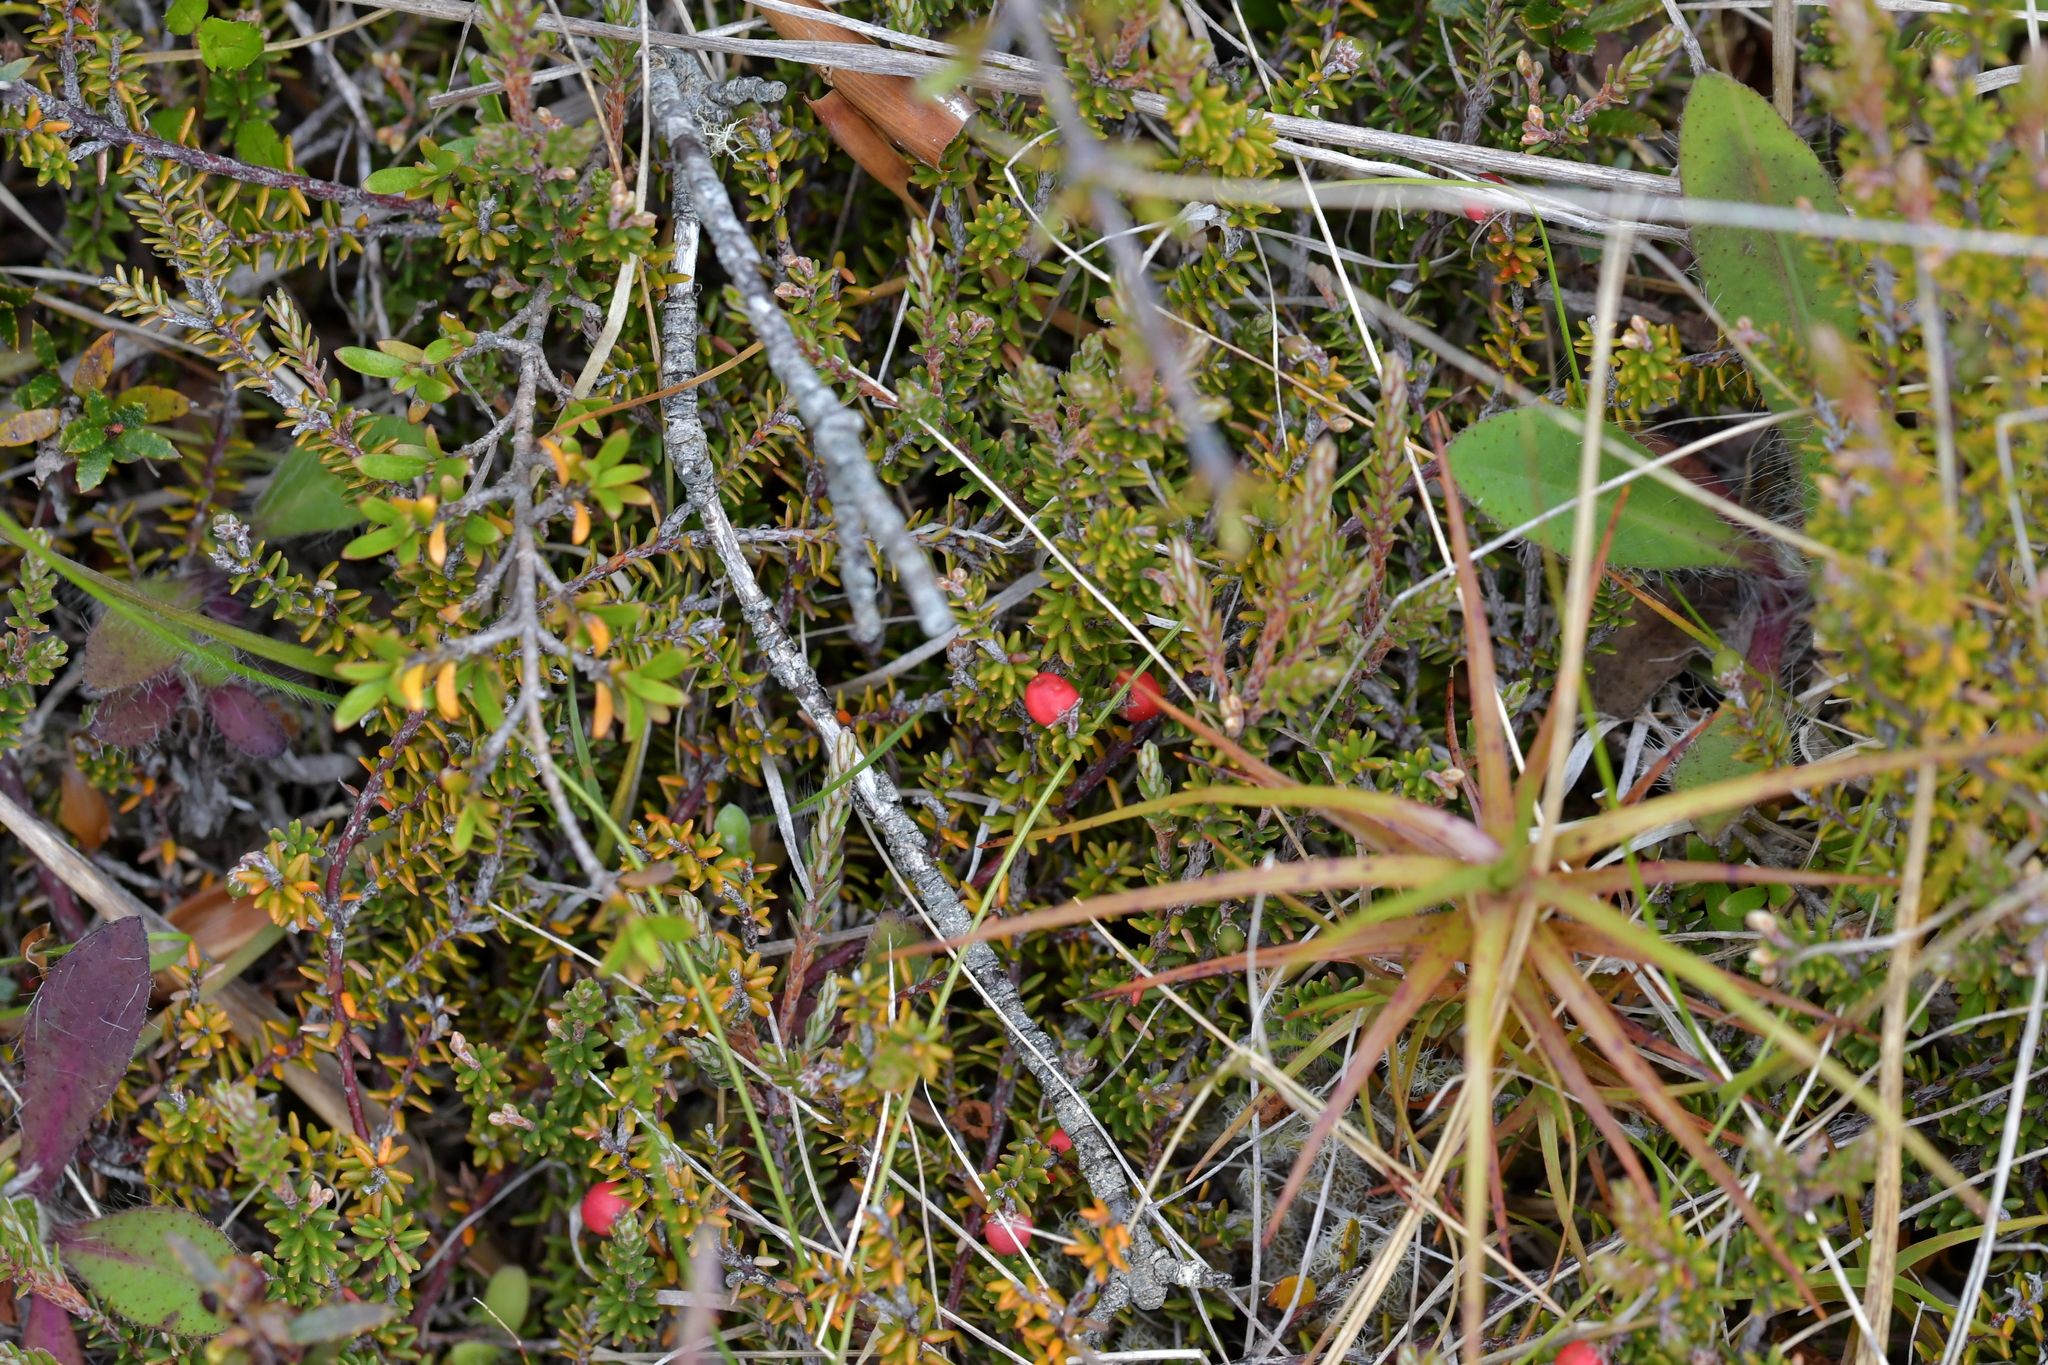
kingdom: Plantae
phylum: Tracheophyta
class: Magnoliopsida
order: Ericales
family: Ericaceae
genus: Androstoma
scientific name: Androstoma empetrifolia
